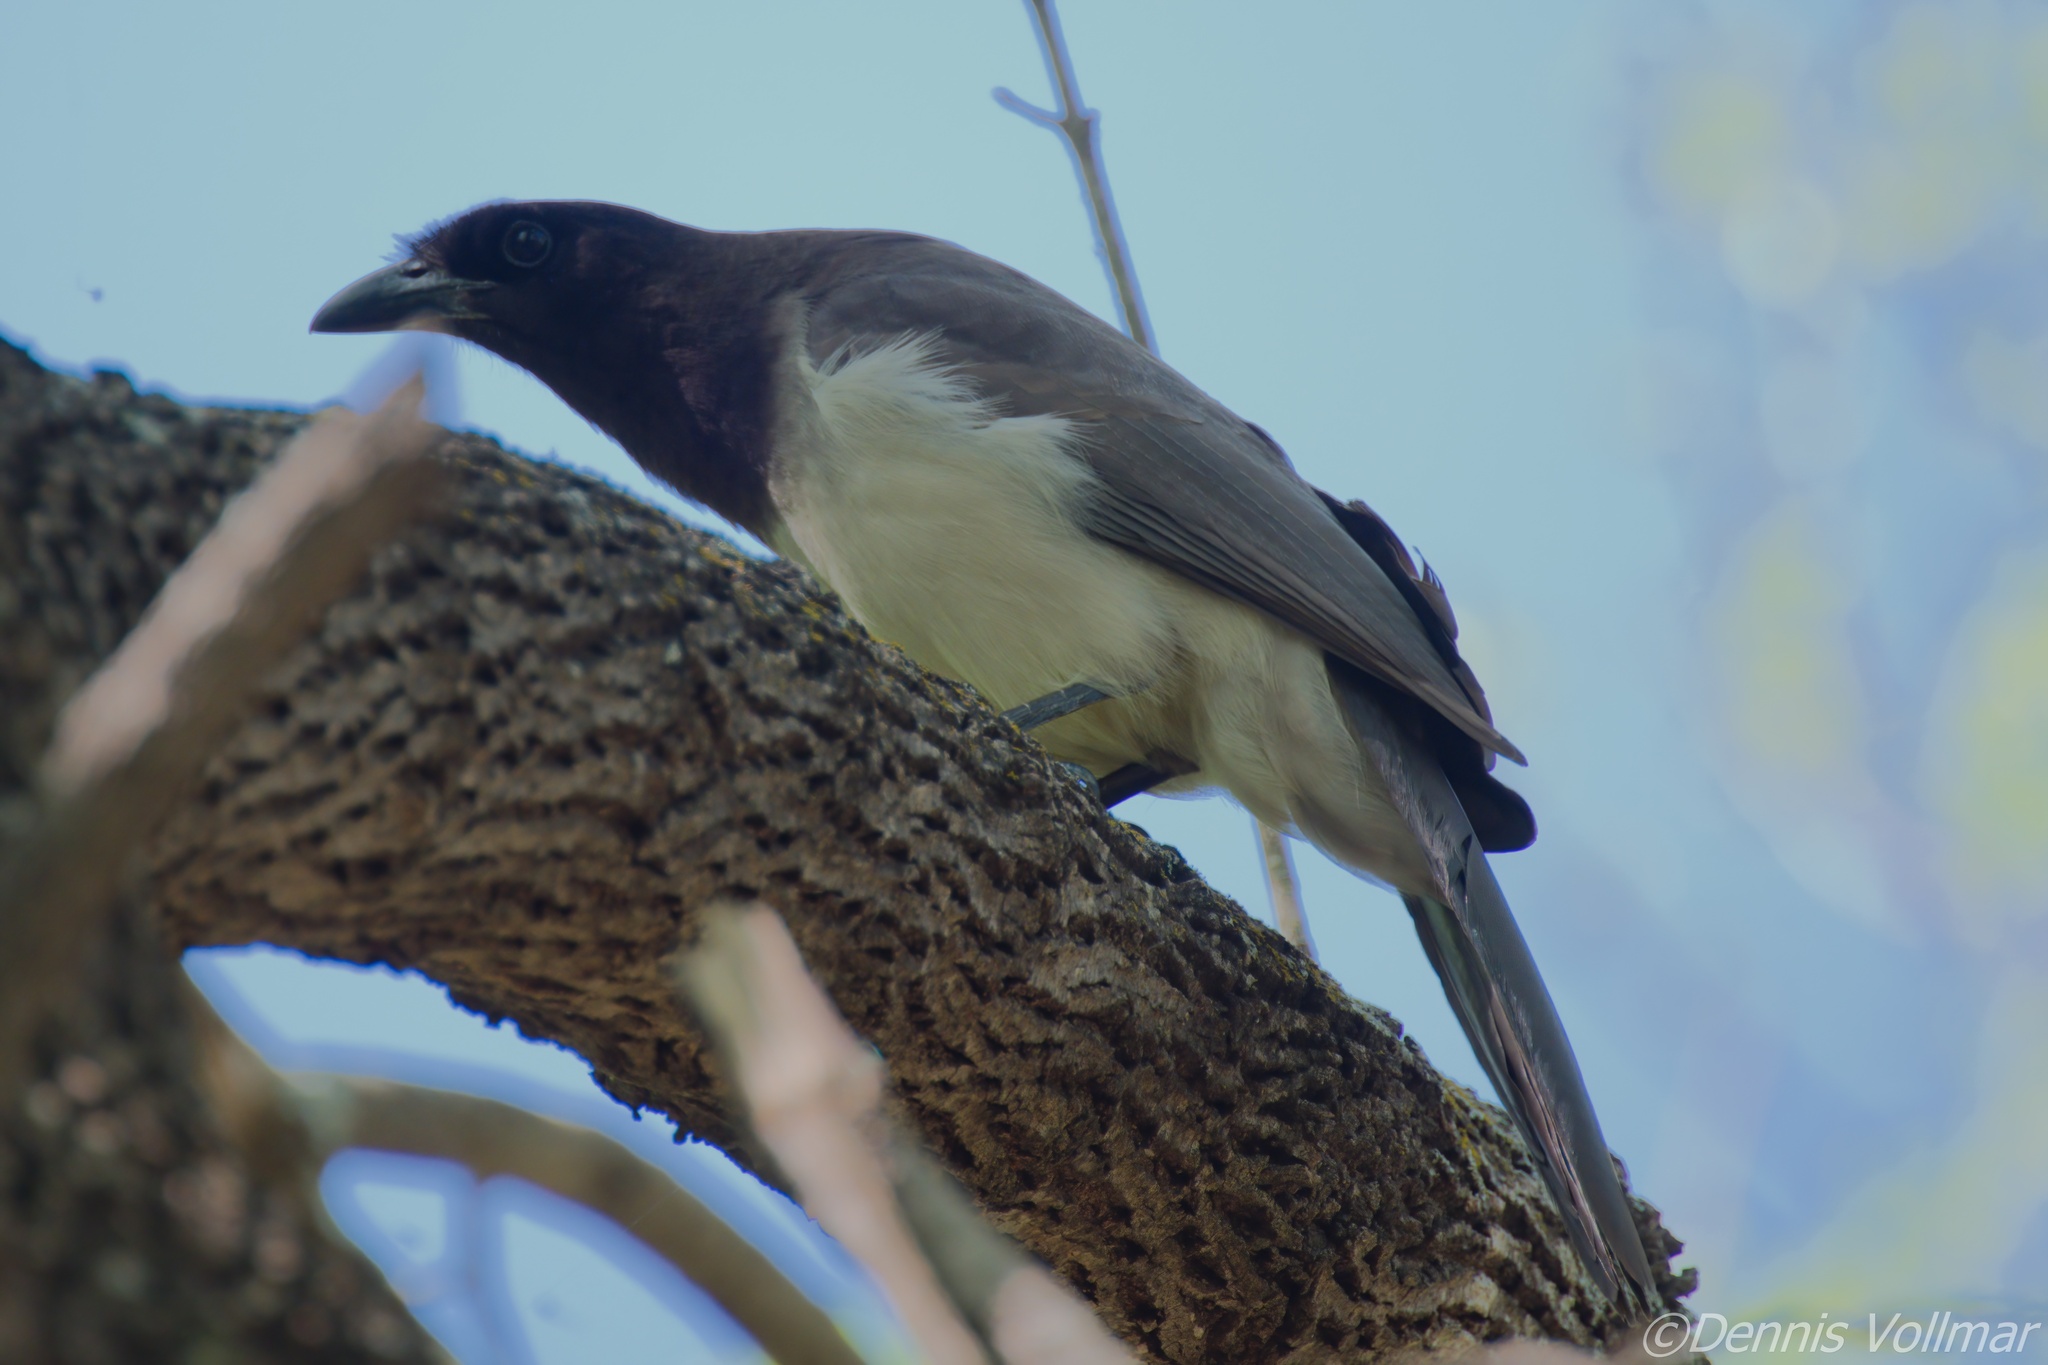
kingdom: Animalia
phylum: Chordata
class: Aves
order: Passeriformes
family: Corvidae
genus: Psilorhinus
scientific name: Psilorhinus morio
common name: Brown jay
